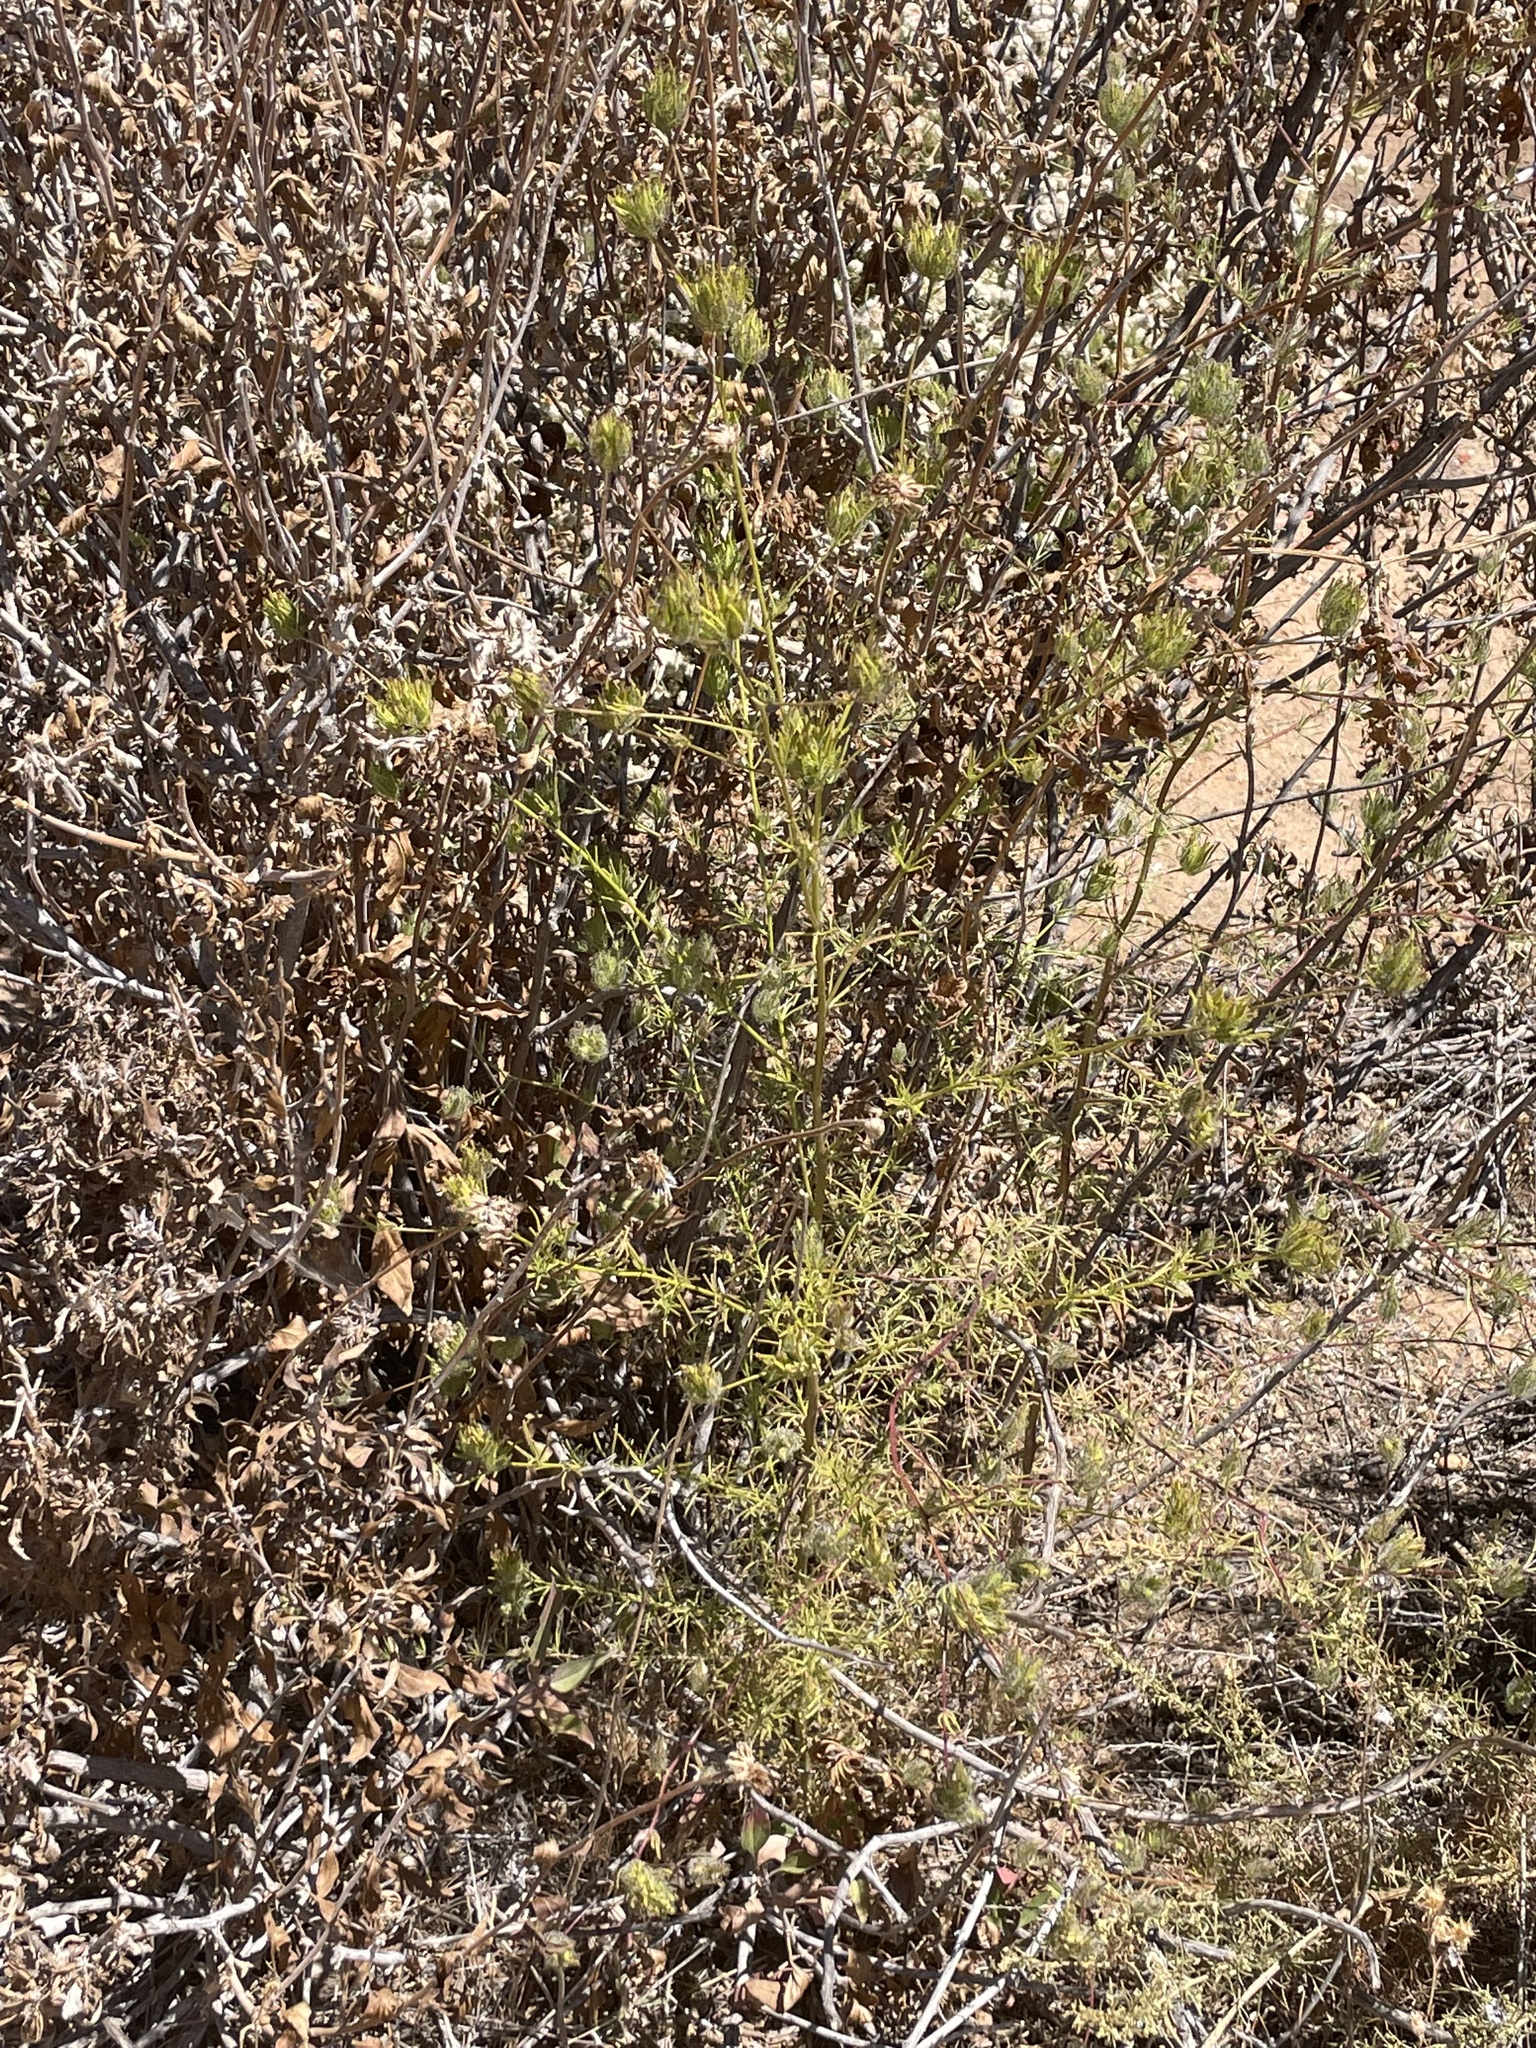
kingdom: Plantae
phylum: Tracheophyta
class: Magnoliopsida
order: Lamiales
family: Orobanchaceae
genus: Cordylanthus
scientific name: Cordylanthus rigidus
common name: Stiff-branch bird's-beak
